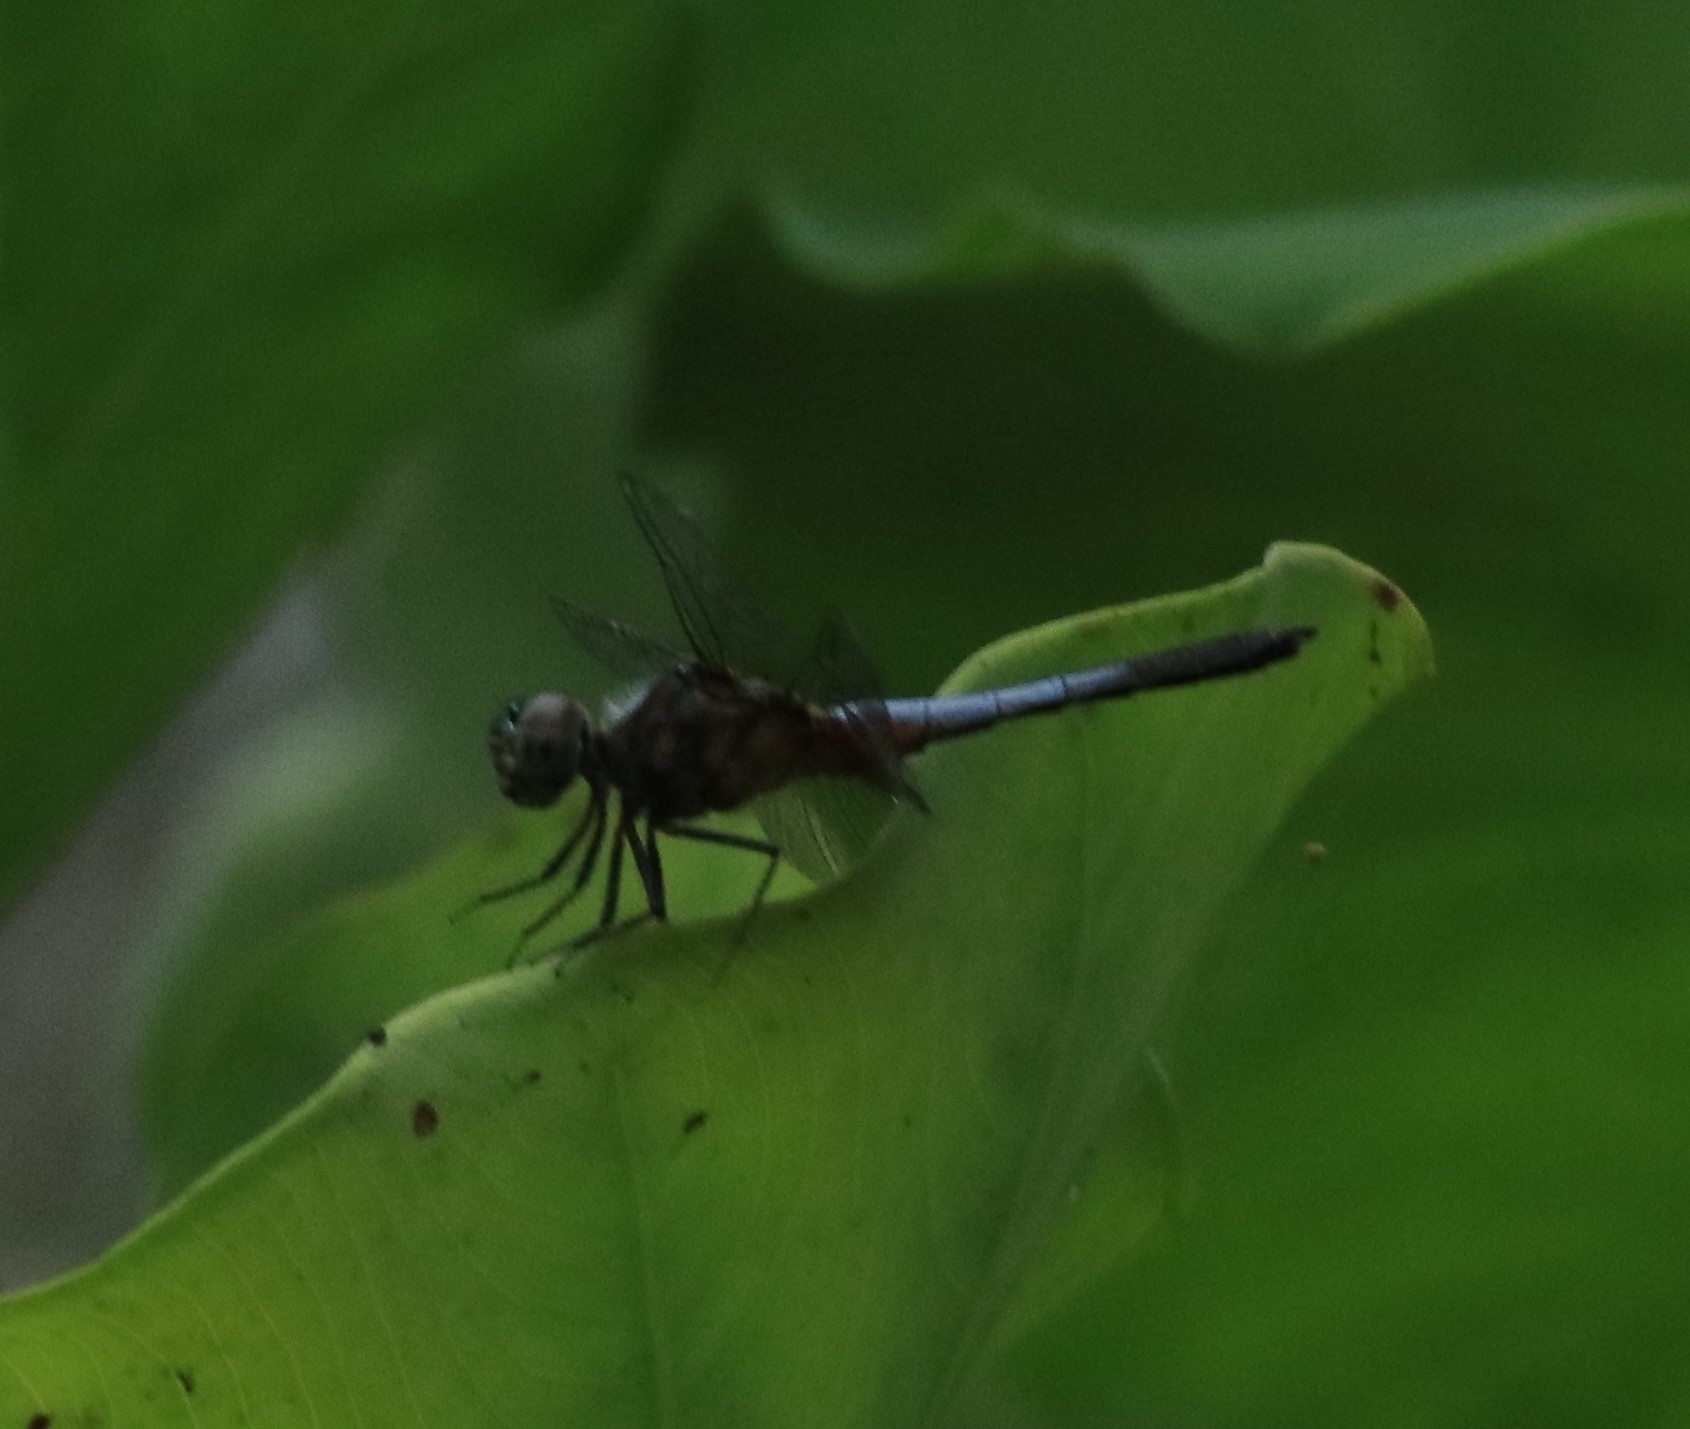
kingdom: Animalia
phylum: Arthropoda
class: Insecta
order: Odonata
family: Libellulidae
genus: Brachydiplax
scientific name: Brachydiplax chalybea
